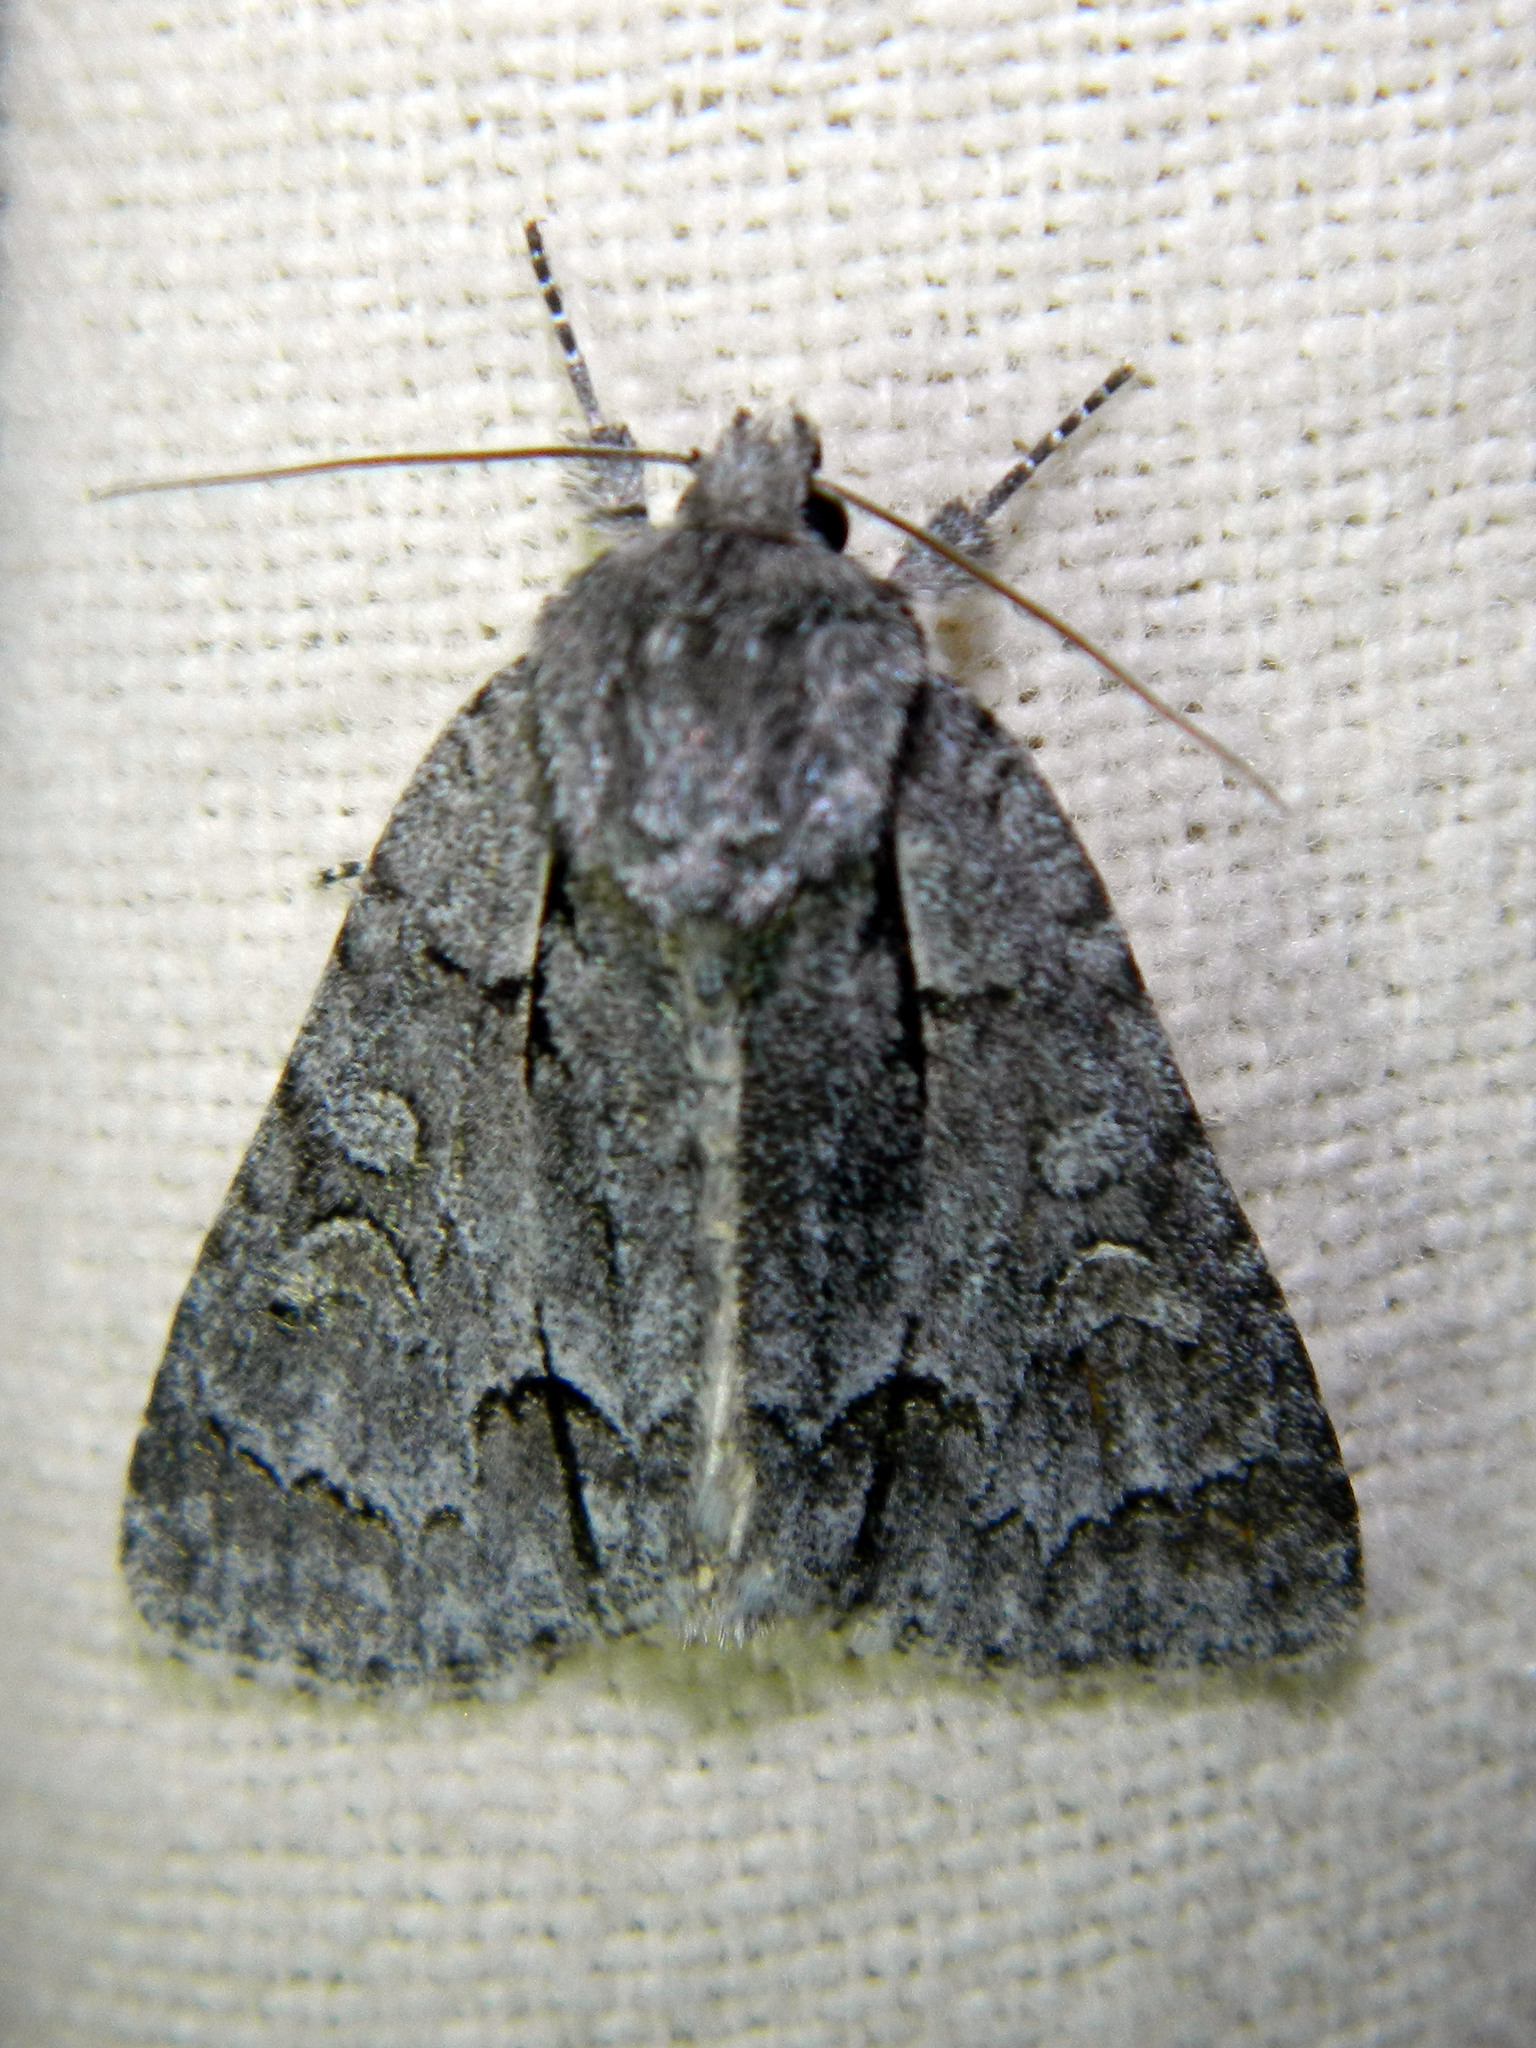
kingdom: Animalia
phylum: Arthropoda
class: Insecta
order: Lepidoptera
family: Noctuidae
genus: Acronicta
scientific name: Acronicta grisea
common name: Gray dagger
